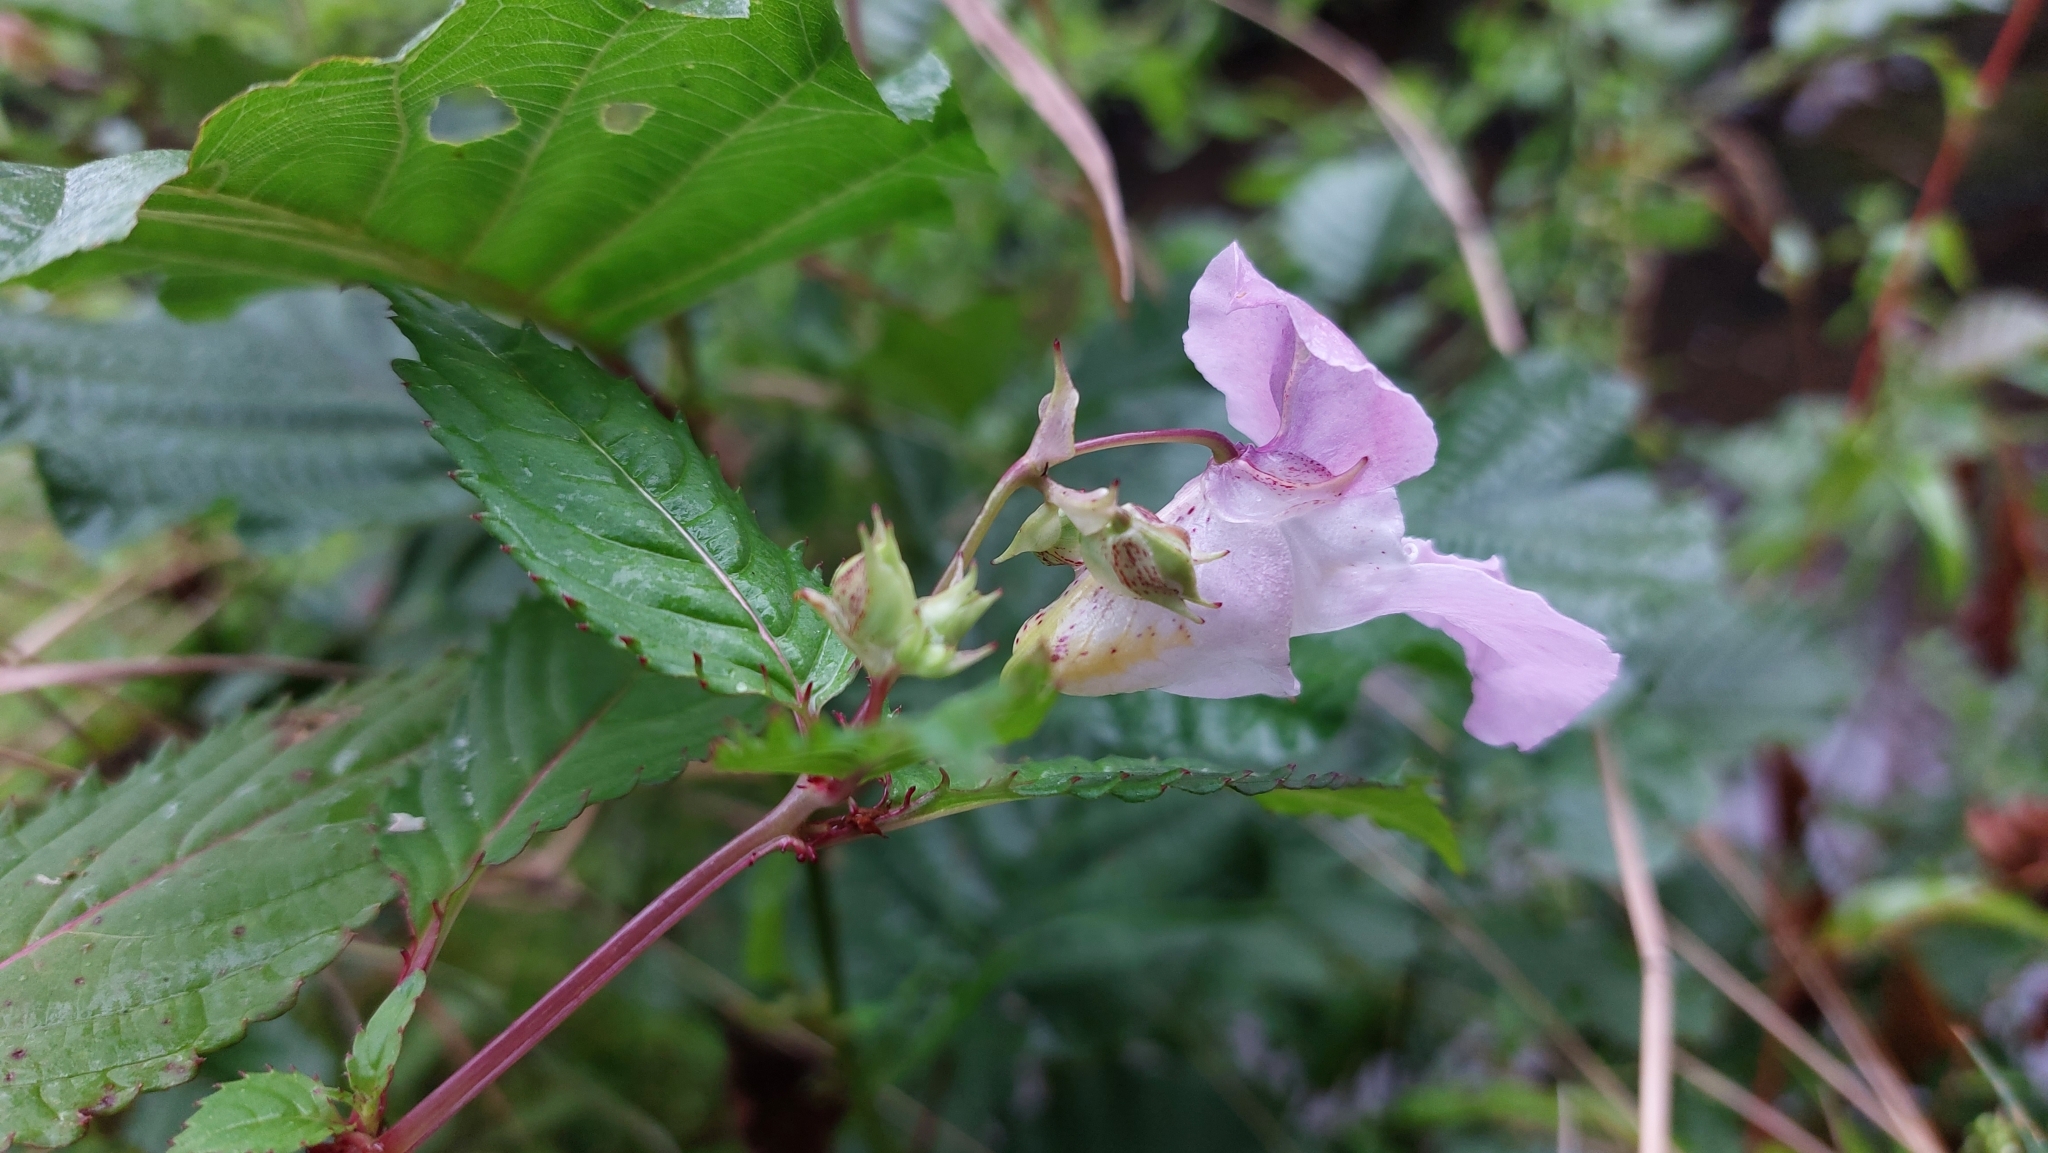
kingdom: Plantae
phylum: Tracheophyta
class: Magnoliopsida
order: Ericales
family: Balsaminaceae
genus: Impatiens
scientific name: Impatiens glandulifera
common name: Himalayan balsam
